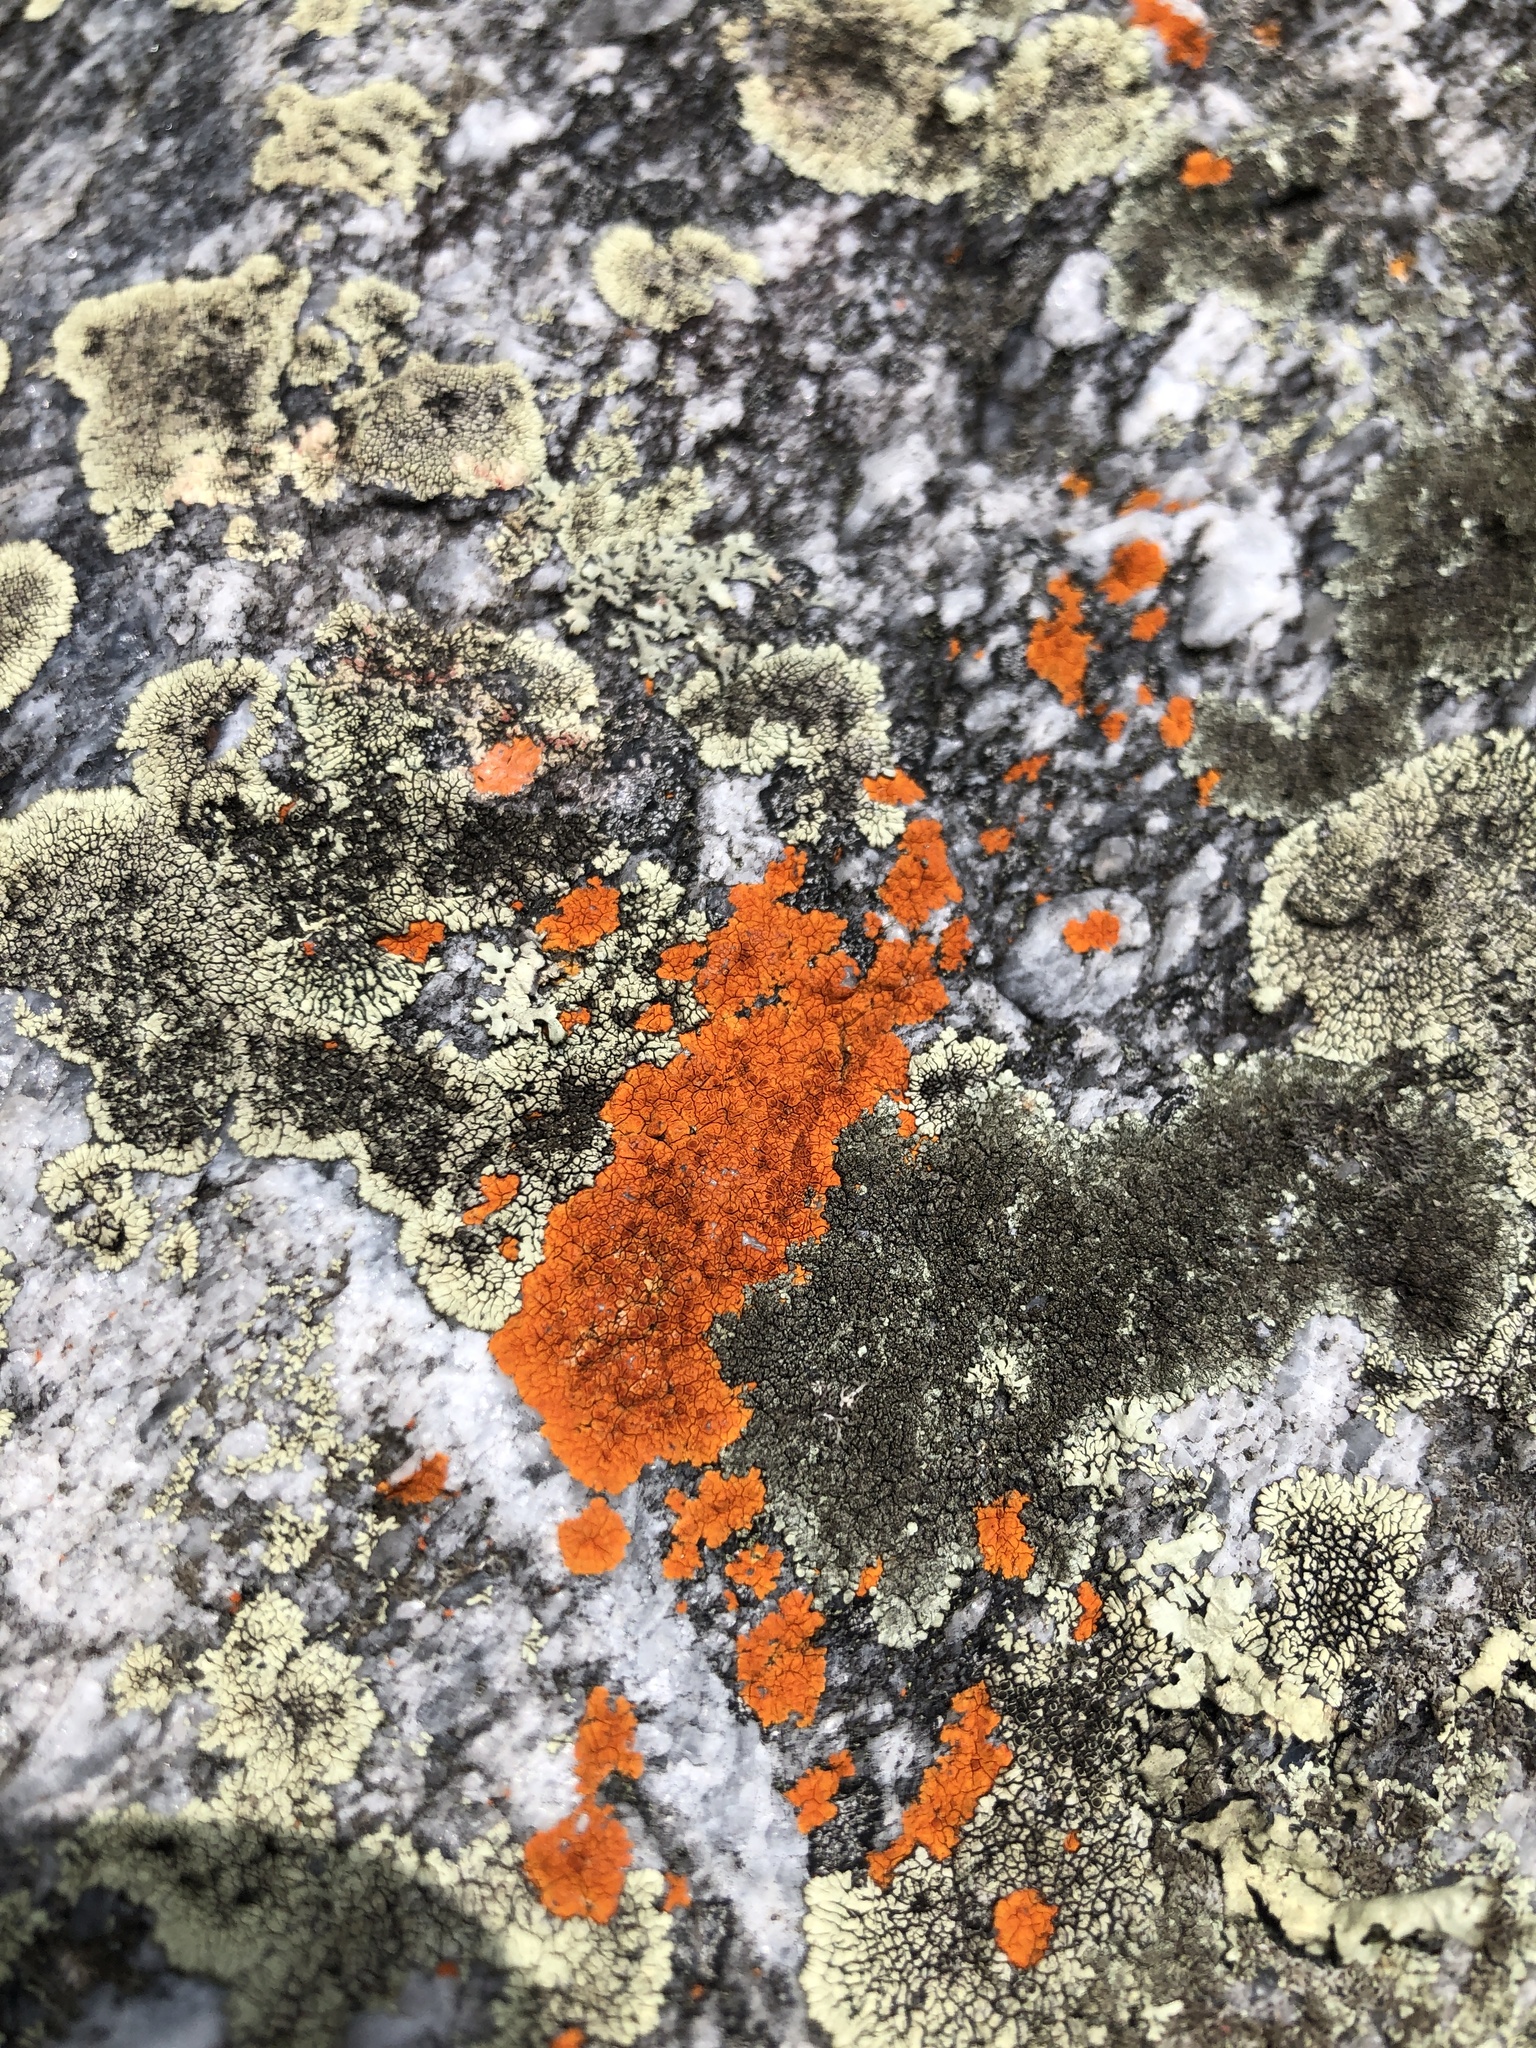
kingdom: Fungi
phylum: Ascomycota
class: Lecanoromycetes
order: Teloschistales
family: Teloschistaceae
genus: Neobrownliella
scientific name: Neobrownliella cinnabarina
